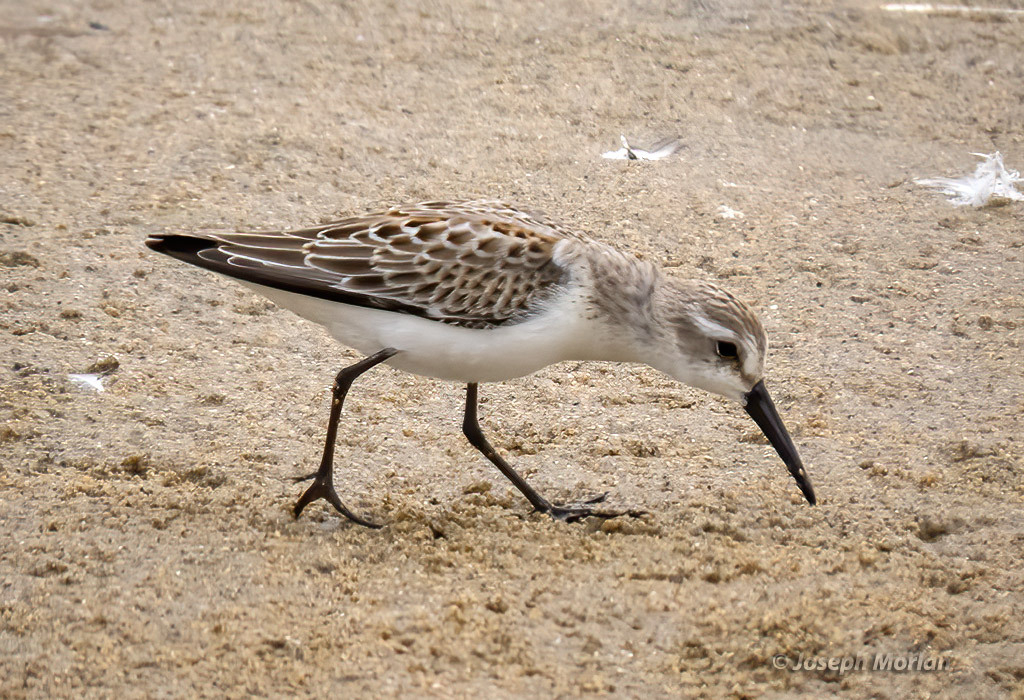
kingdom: Animalia
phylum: Chordata
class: Aves
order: Charadriiformes
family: Scolopacidae
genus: Calidris
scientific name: Calidris mauri
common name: Western sandpiper
